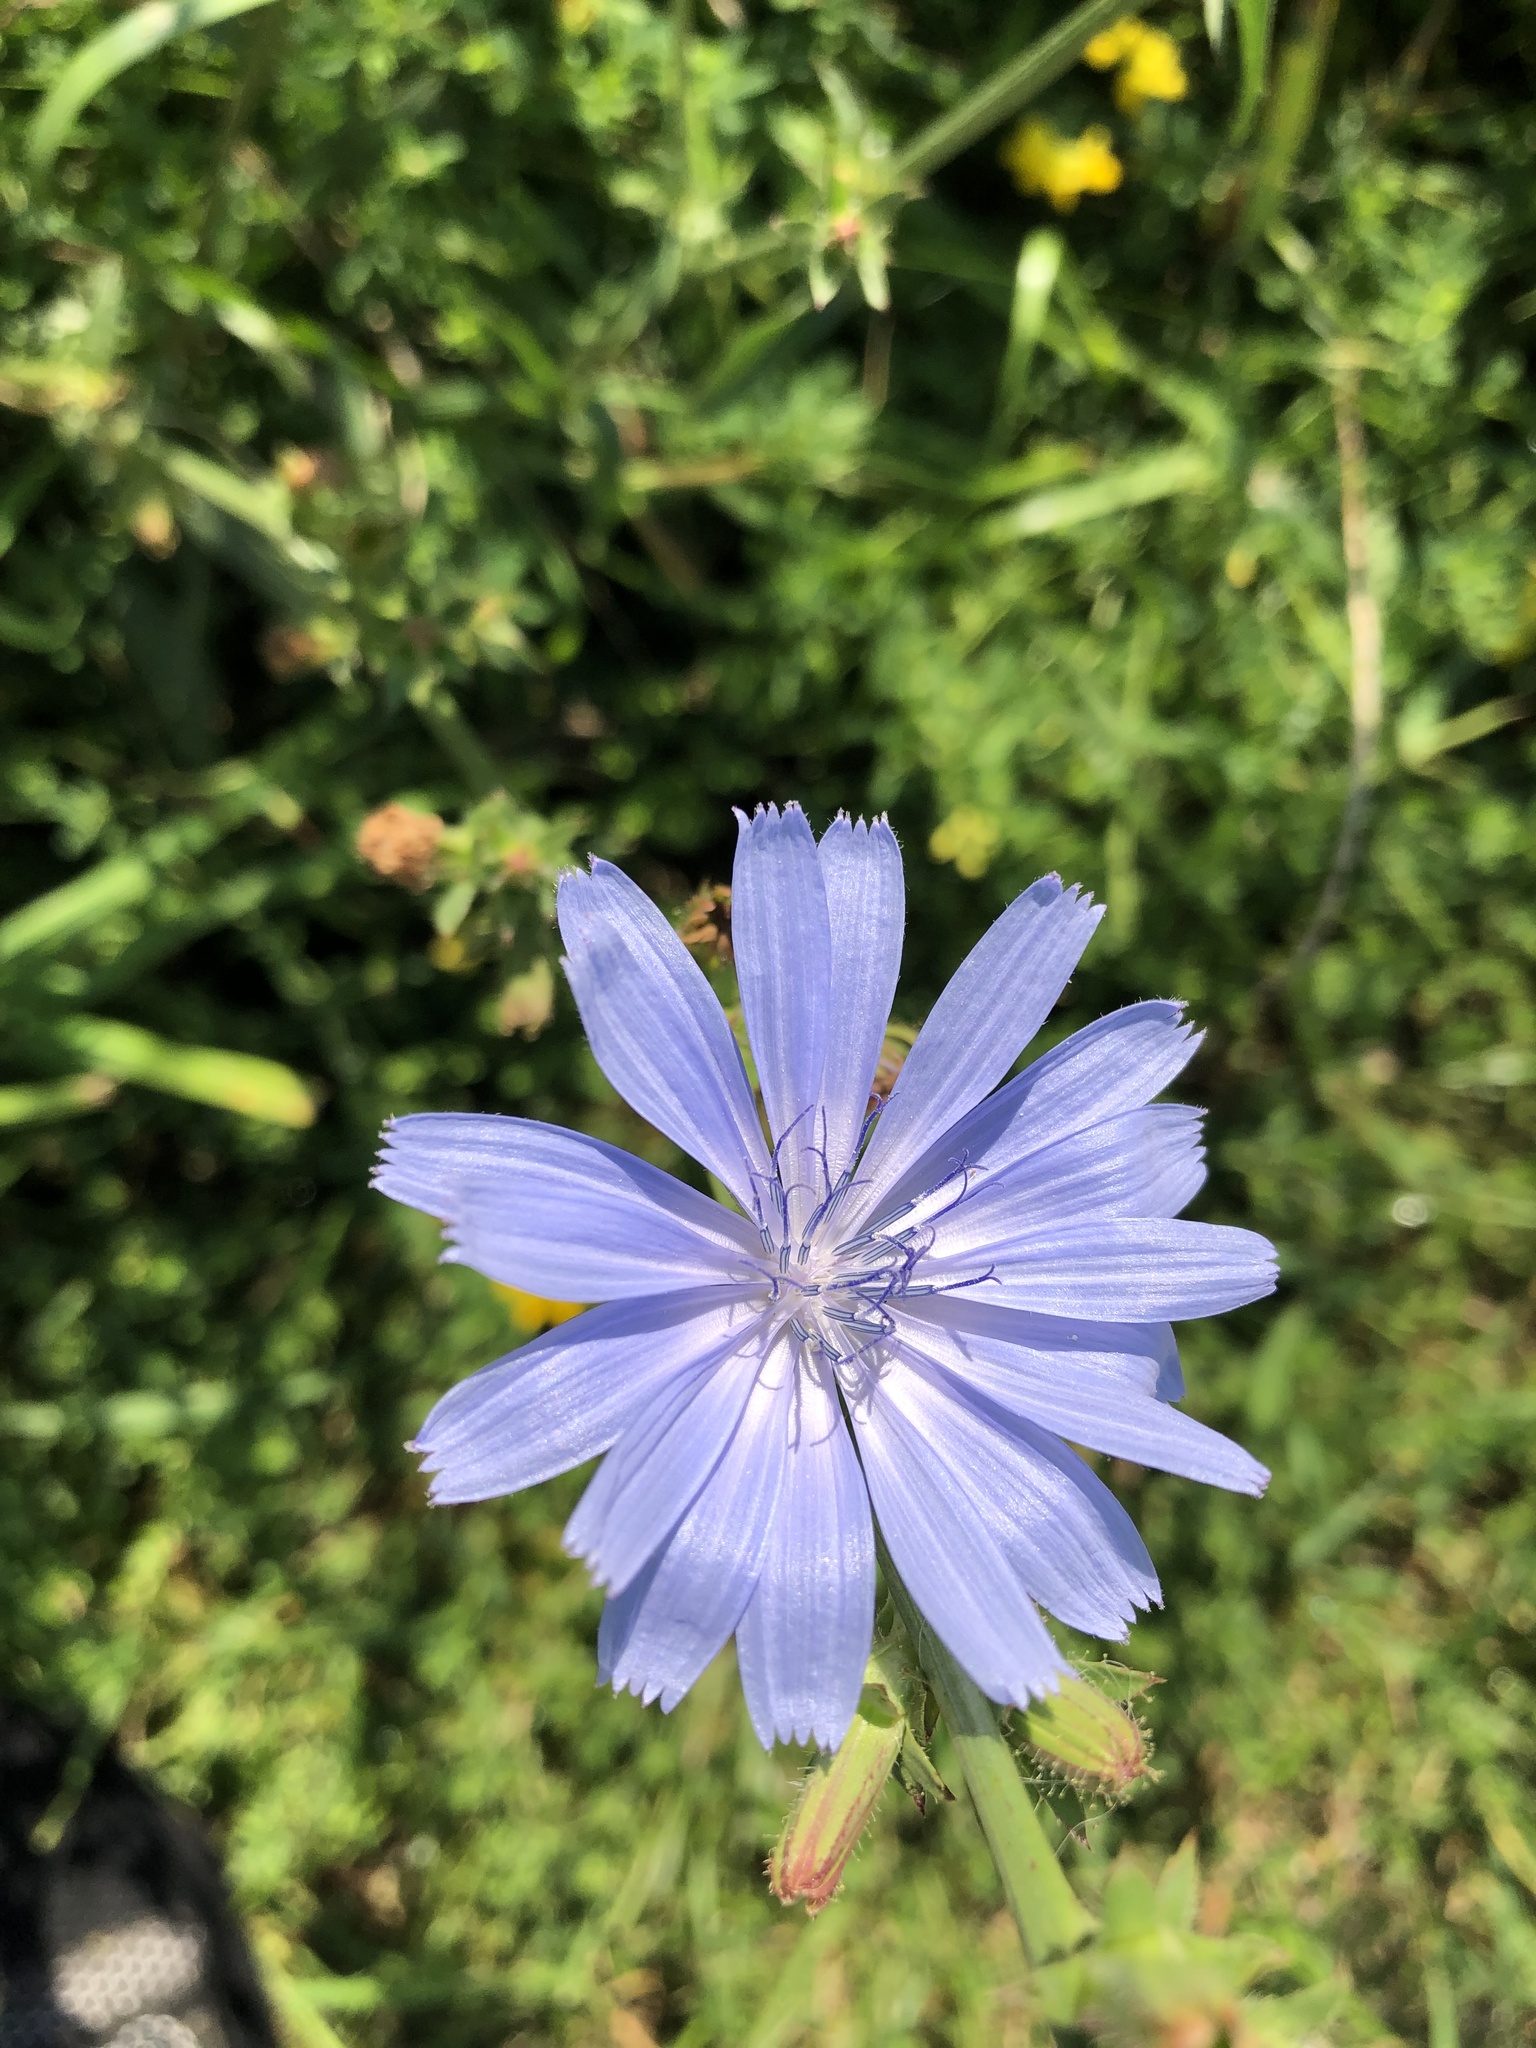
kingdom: Plantae
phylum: Tracheophyta
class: Magnoliopsida
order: Asterales
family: Asteraceae
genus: Cichorium
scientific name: Cichorium intybus
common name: Chicory
